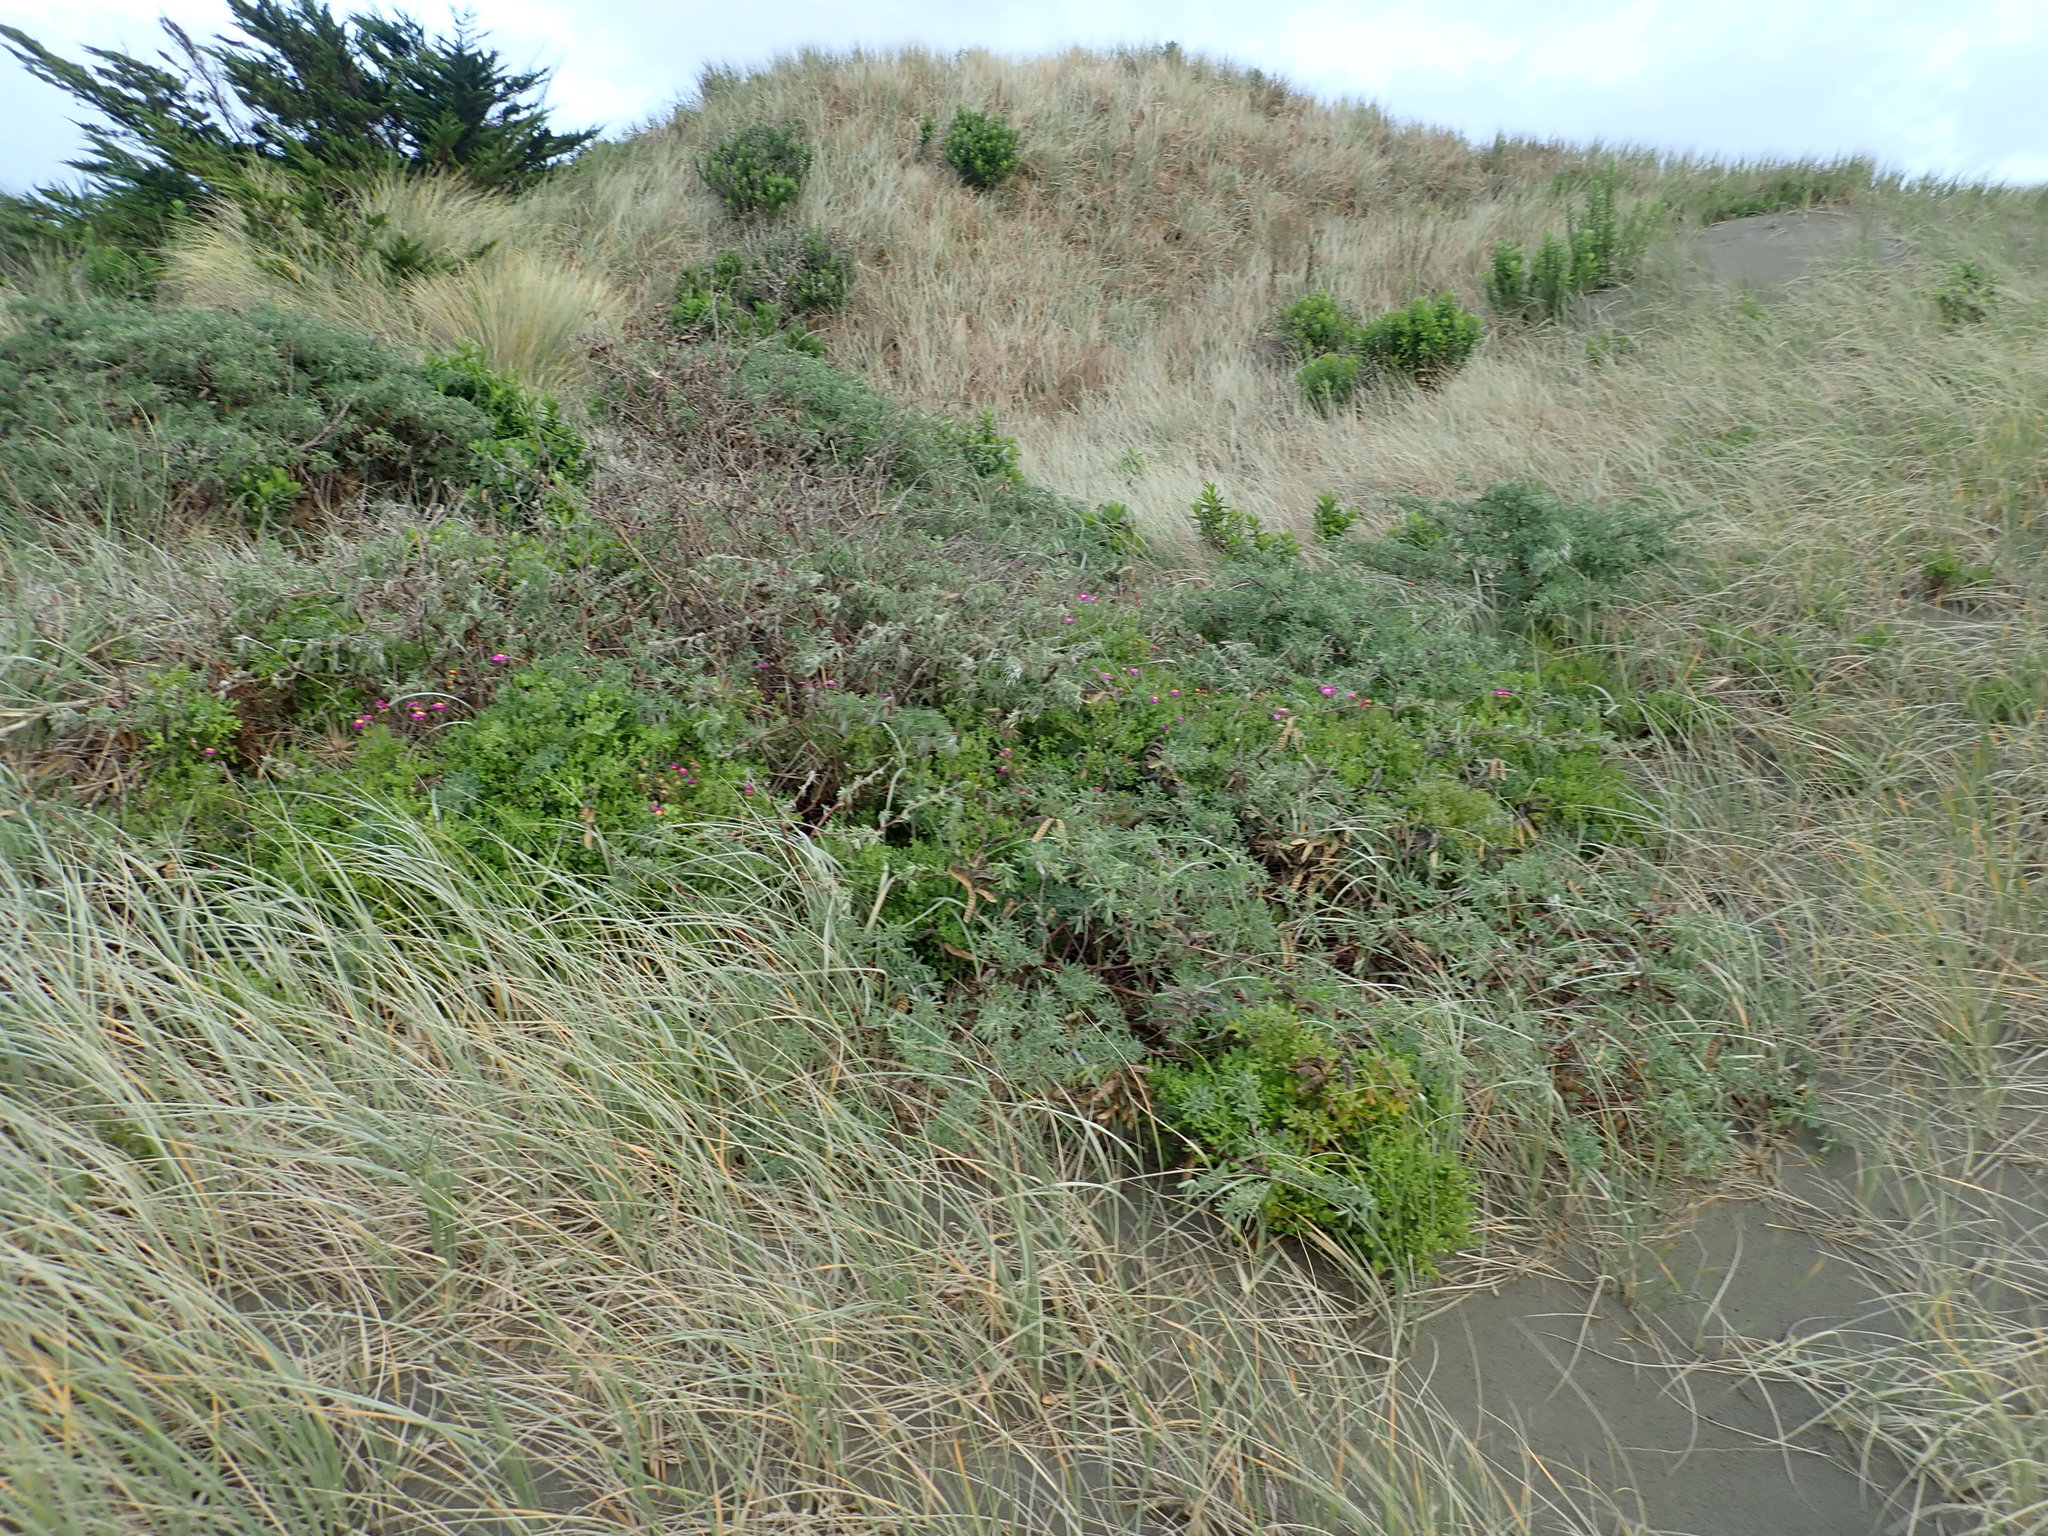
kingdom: Plantae
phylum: Tracheophyta
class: Magnoliopsida
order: Fabales
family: Fabaceae
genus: Lupinus
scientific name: Lupinus arboreus
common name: Yellow bush lupine
